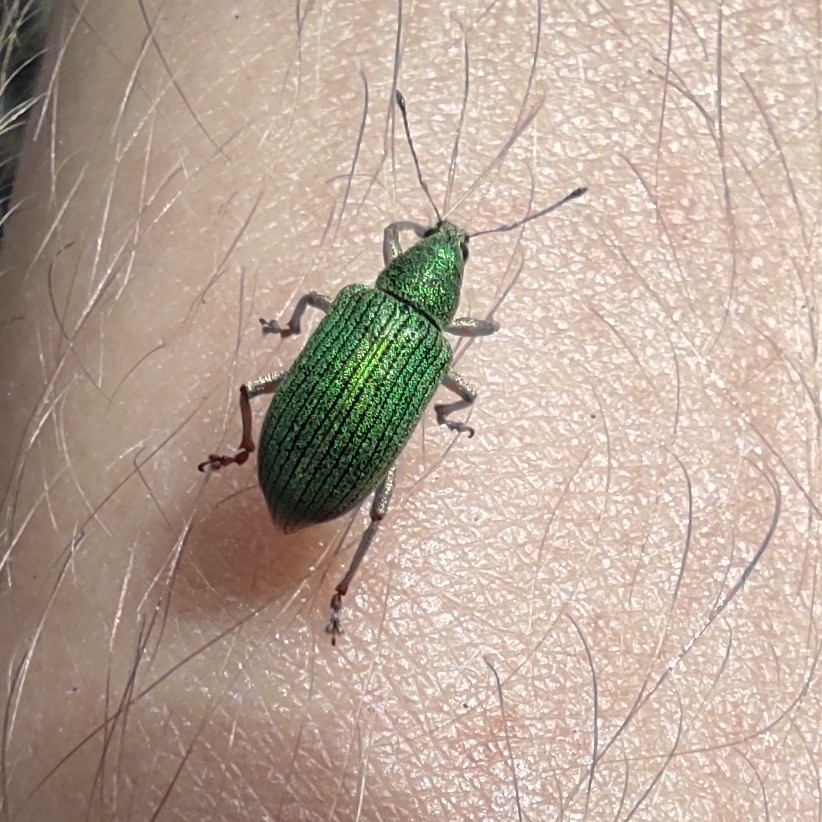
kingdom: Animalia
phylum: Arthropoda
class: Insecta
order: Coleoptera
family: Curculionidae
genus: Polydrusus
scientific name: Polydrusus formosus
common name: Weevil
